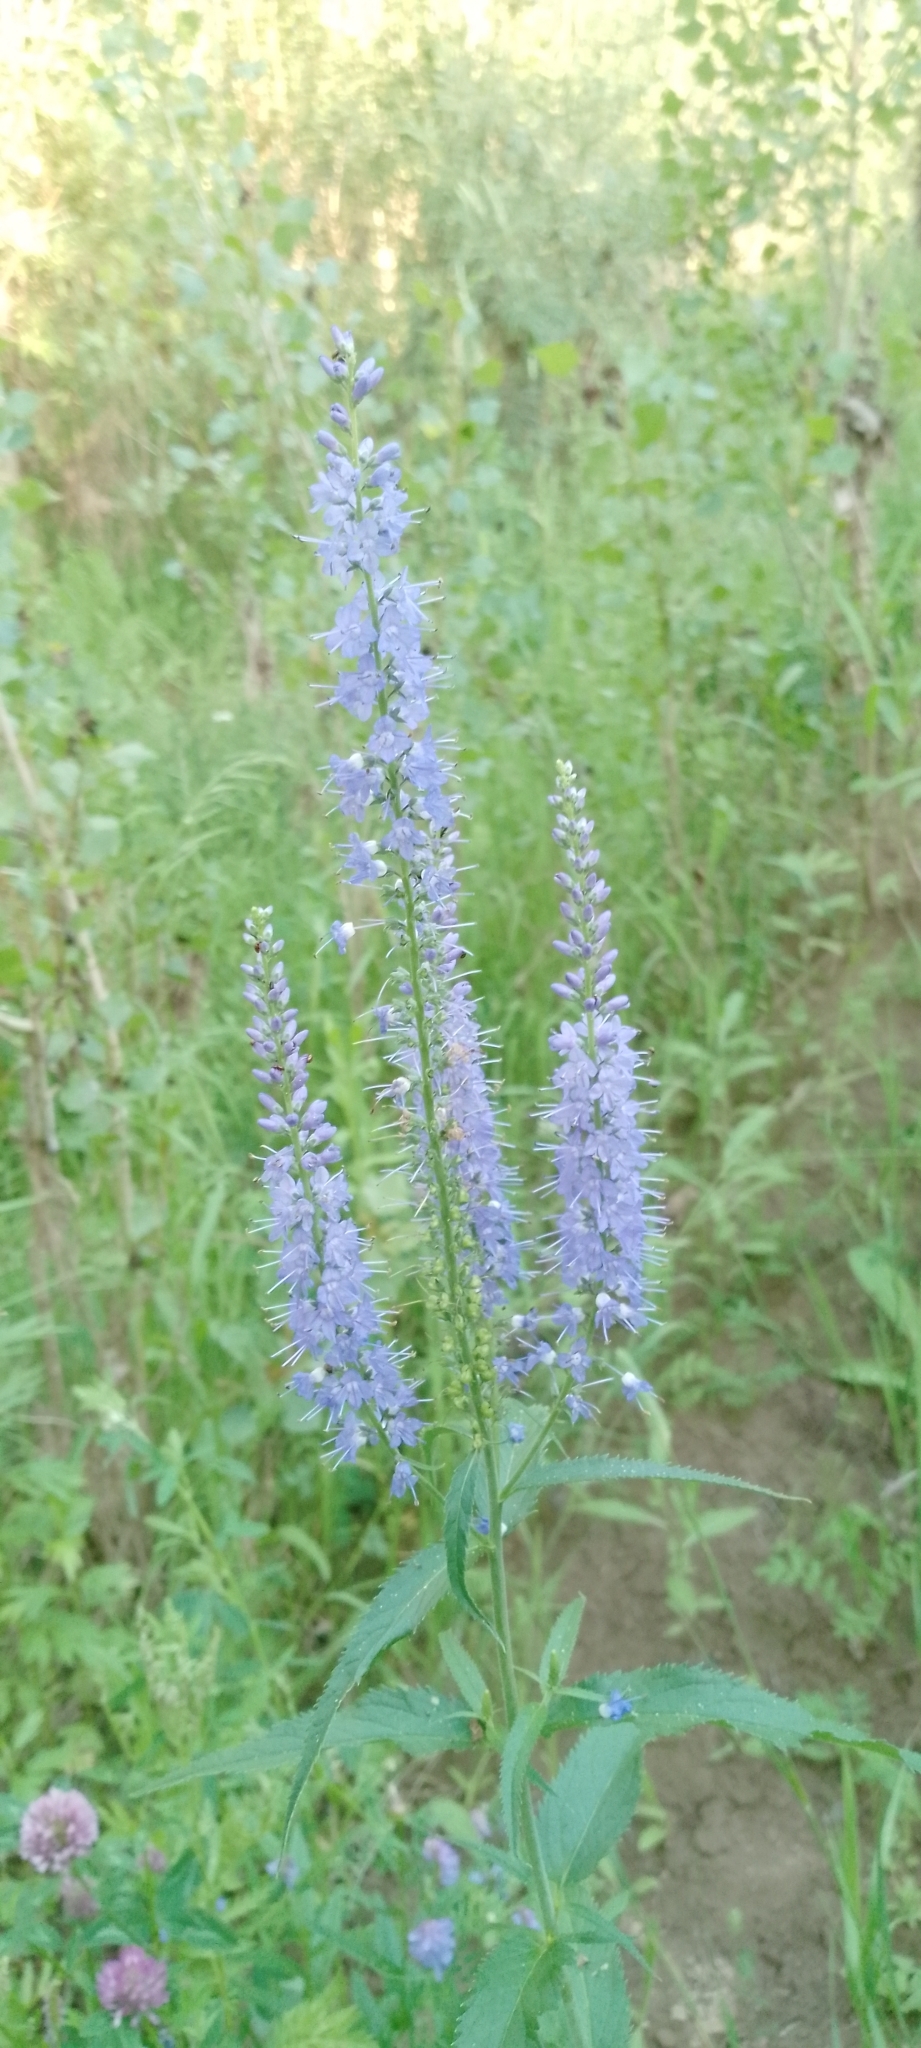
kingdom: Plantae
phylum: Tracheophyta
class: Magnoliopsida
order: Lamiales
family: Plantaginaceae
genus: Veronica
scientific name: Veronica longifolia
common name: Garden speedwell
